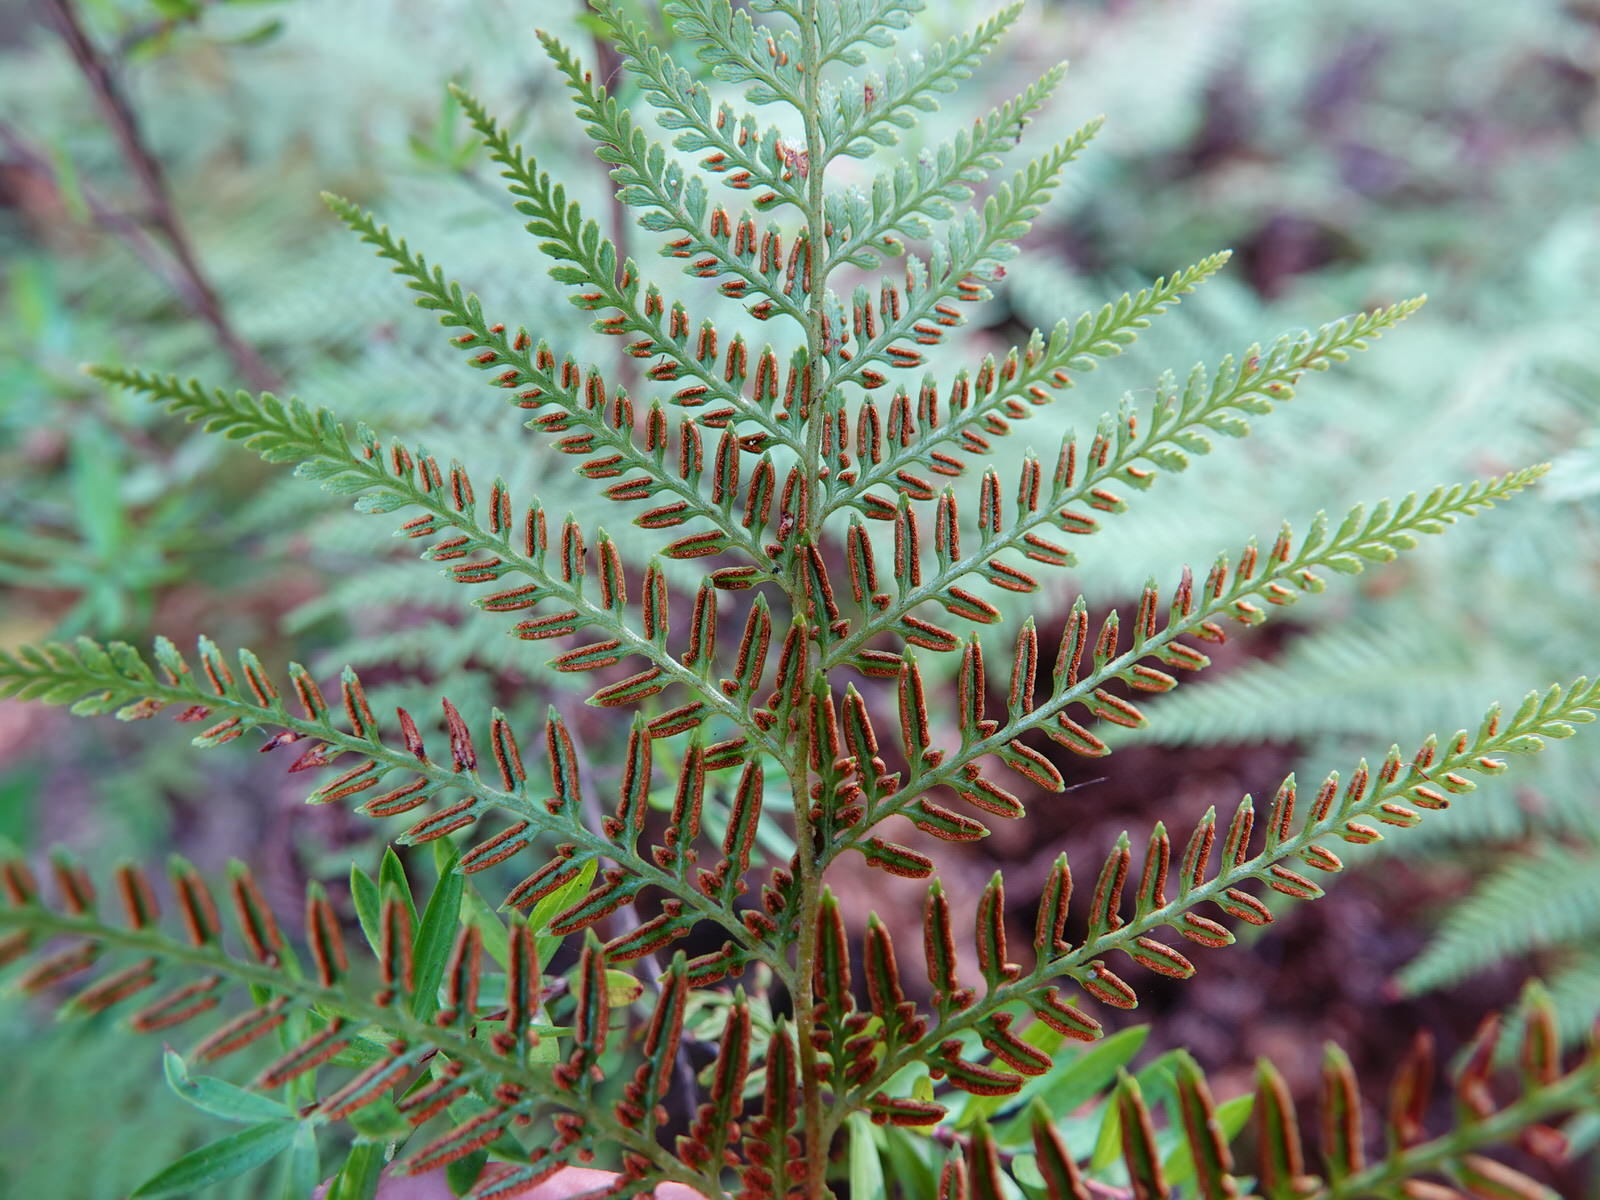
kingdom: Plantae
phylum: Tracheophyta
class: Polypodiopsida
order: Polypodiales
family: Dennstaedtiaceae
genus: Paesia
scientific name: Paesia scaberula
